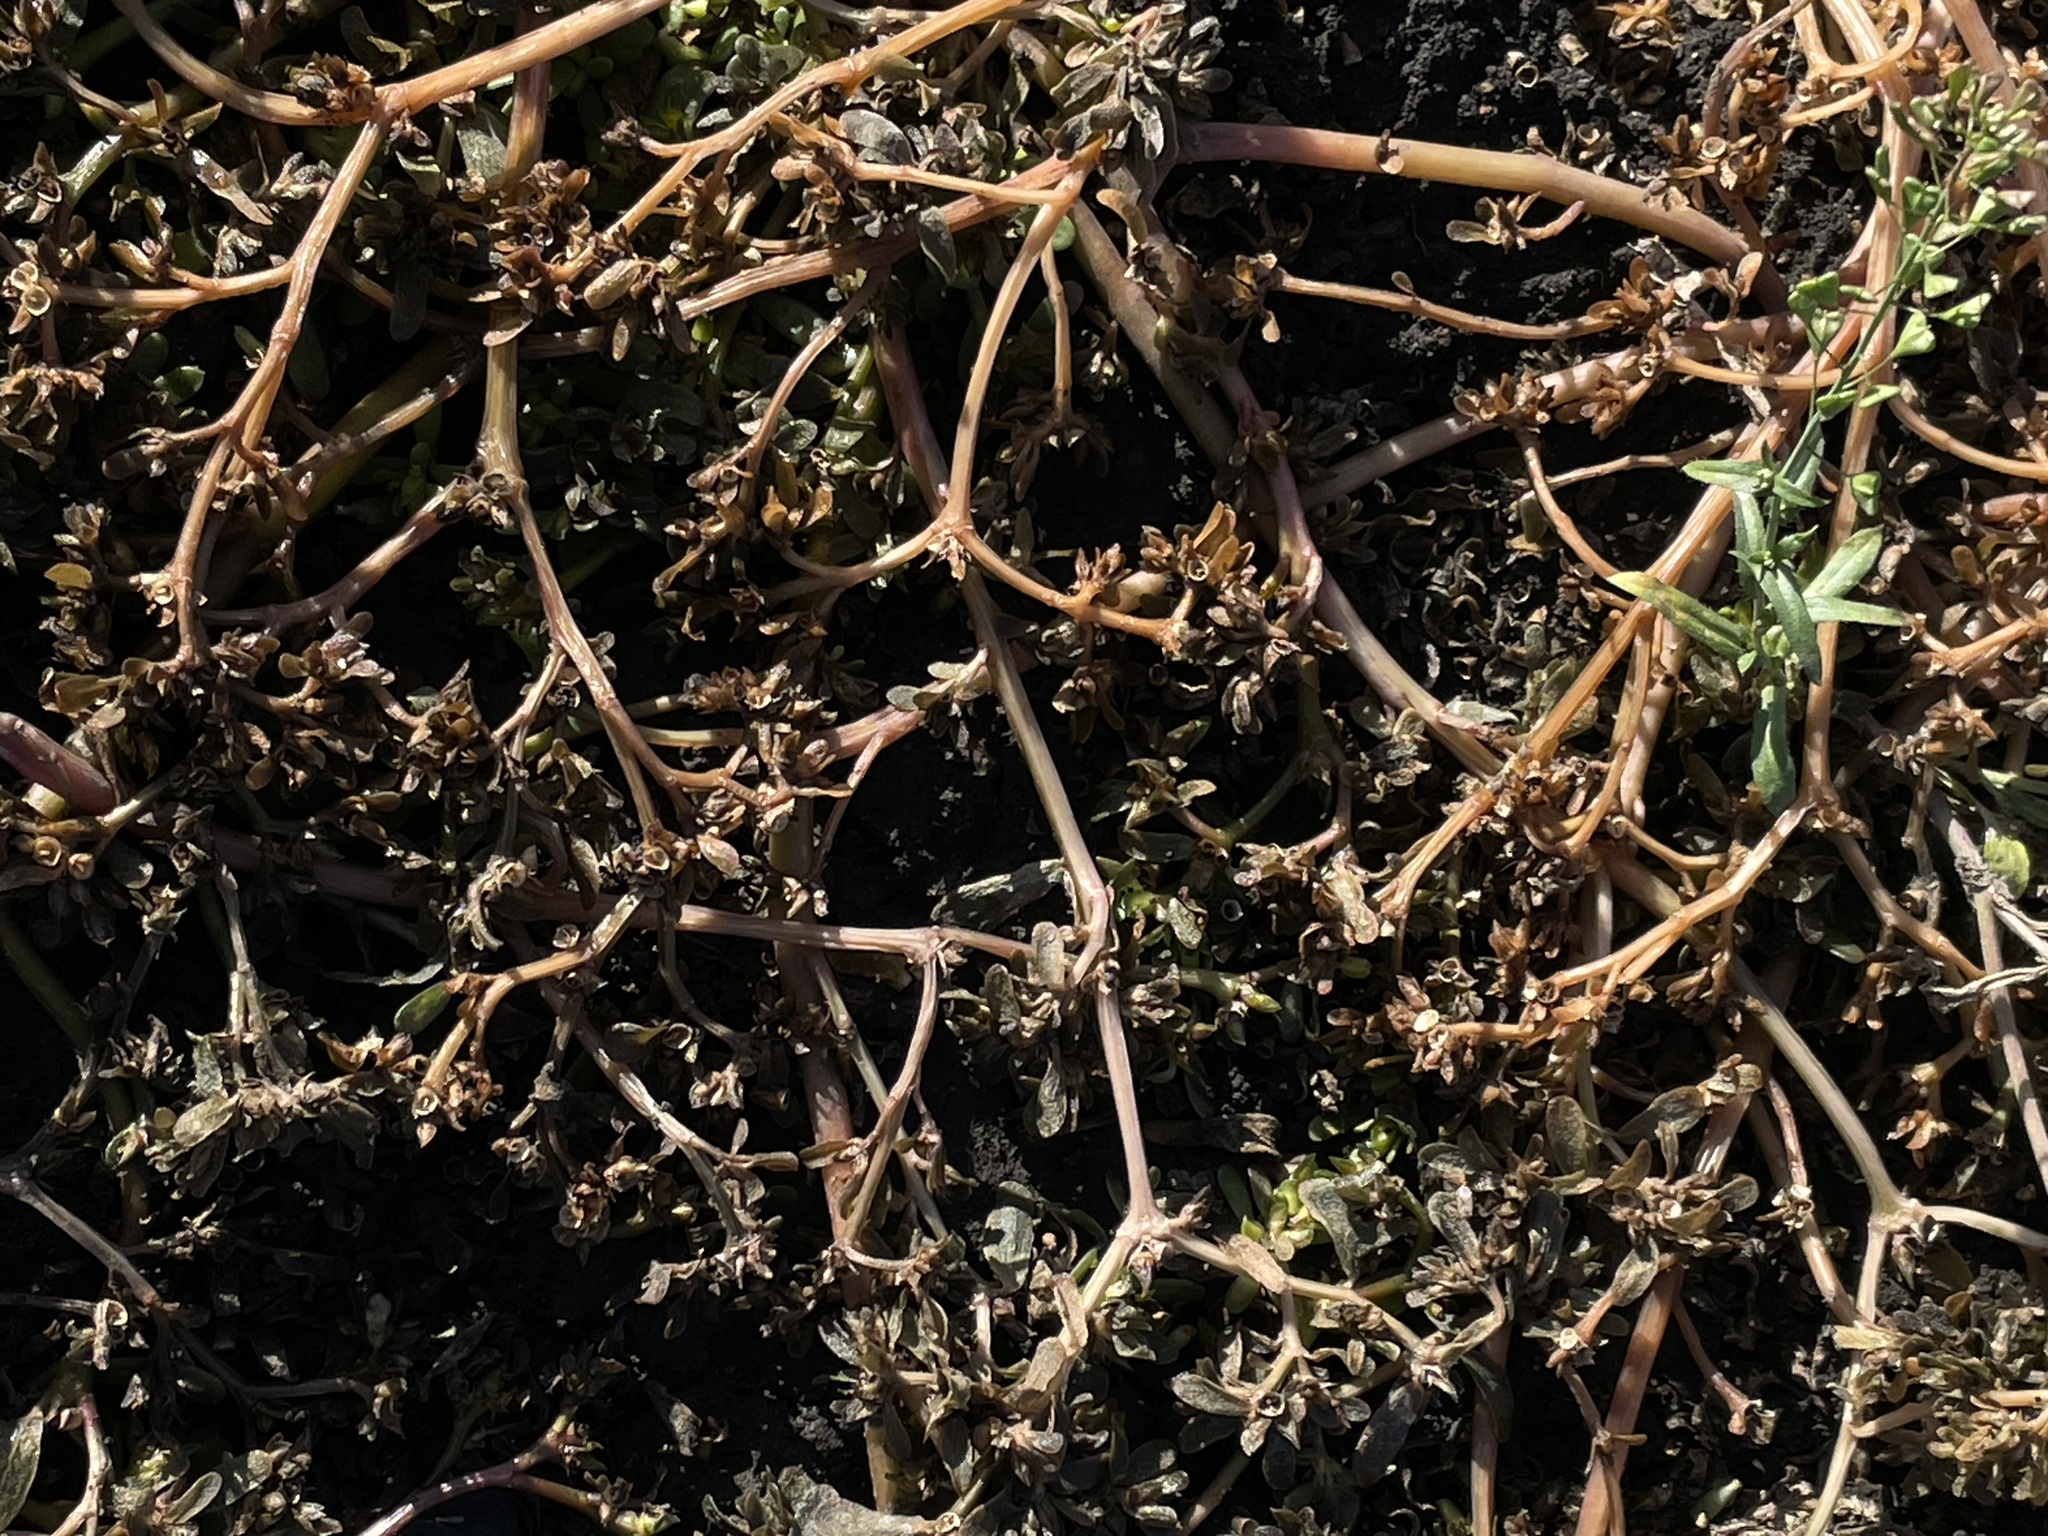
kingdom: Plantae
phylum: Tracheophyta
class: Magnoliopsida
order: Caryophyllales
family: Portulacaceae
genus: Portulaca
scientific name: Portulaca oleracea
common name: Common purslane
